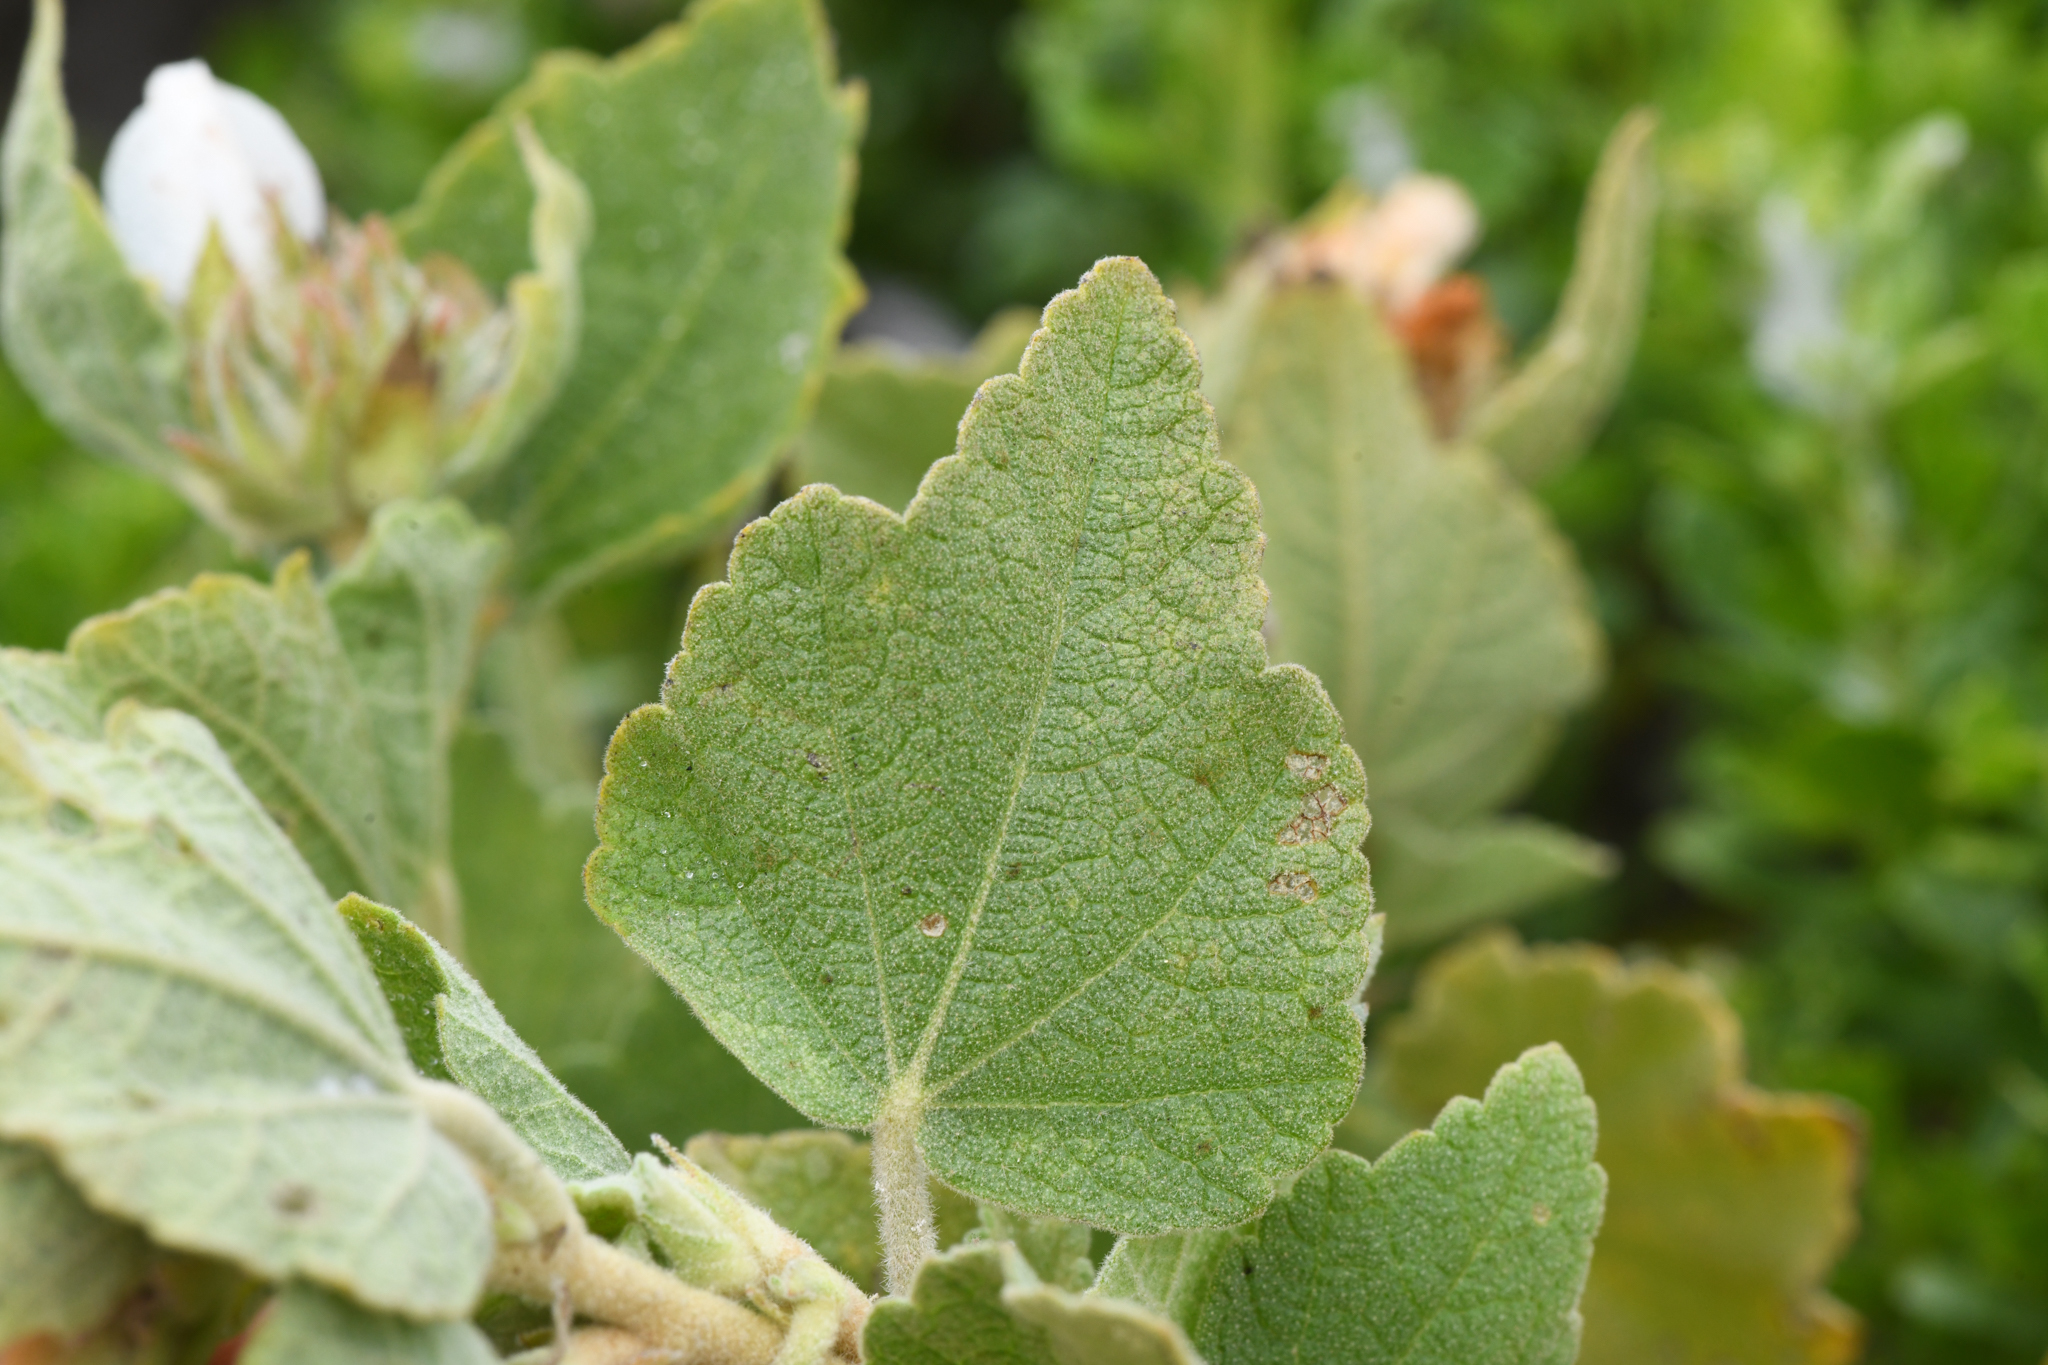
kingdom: Plantae
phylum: Tracheophyta
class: Magnoliopsida
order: Malvales
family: Malvaceae
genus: Malacothamnus
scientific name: Malacothamnus palmeri
